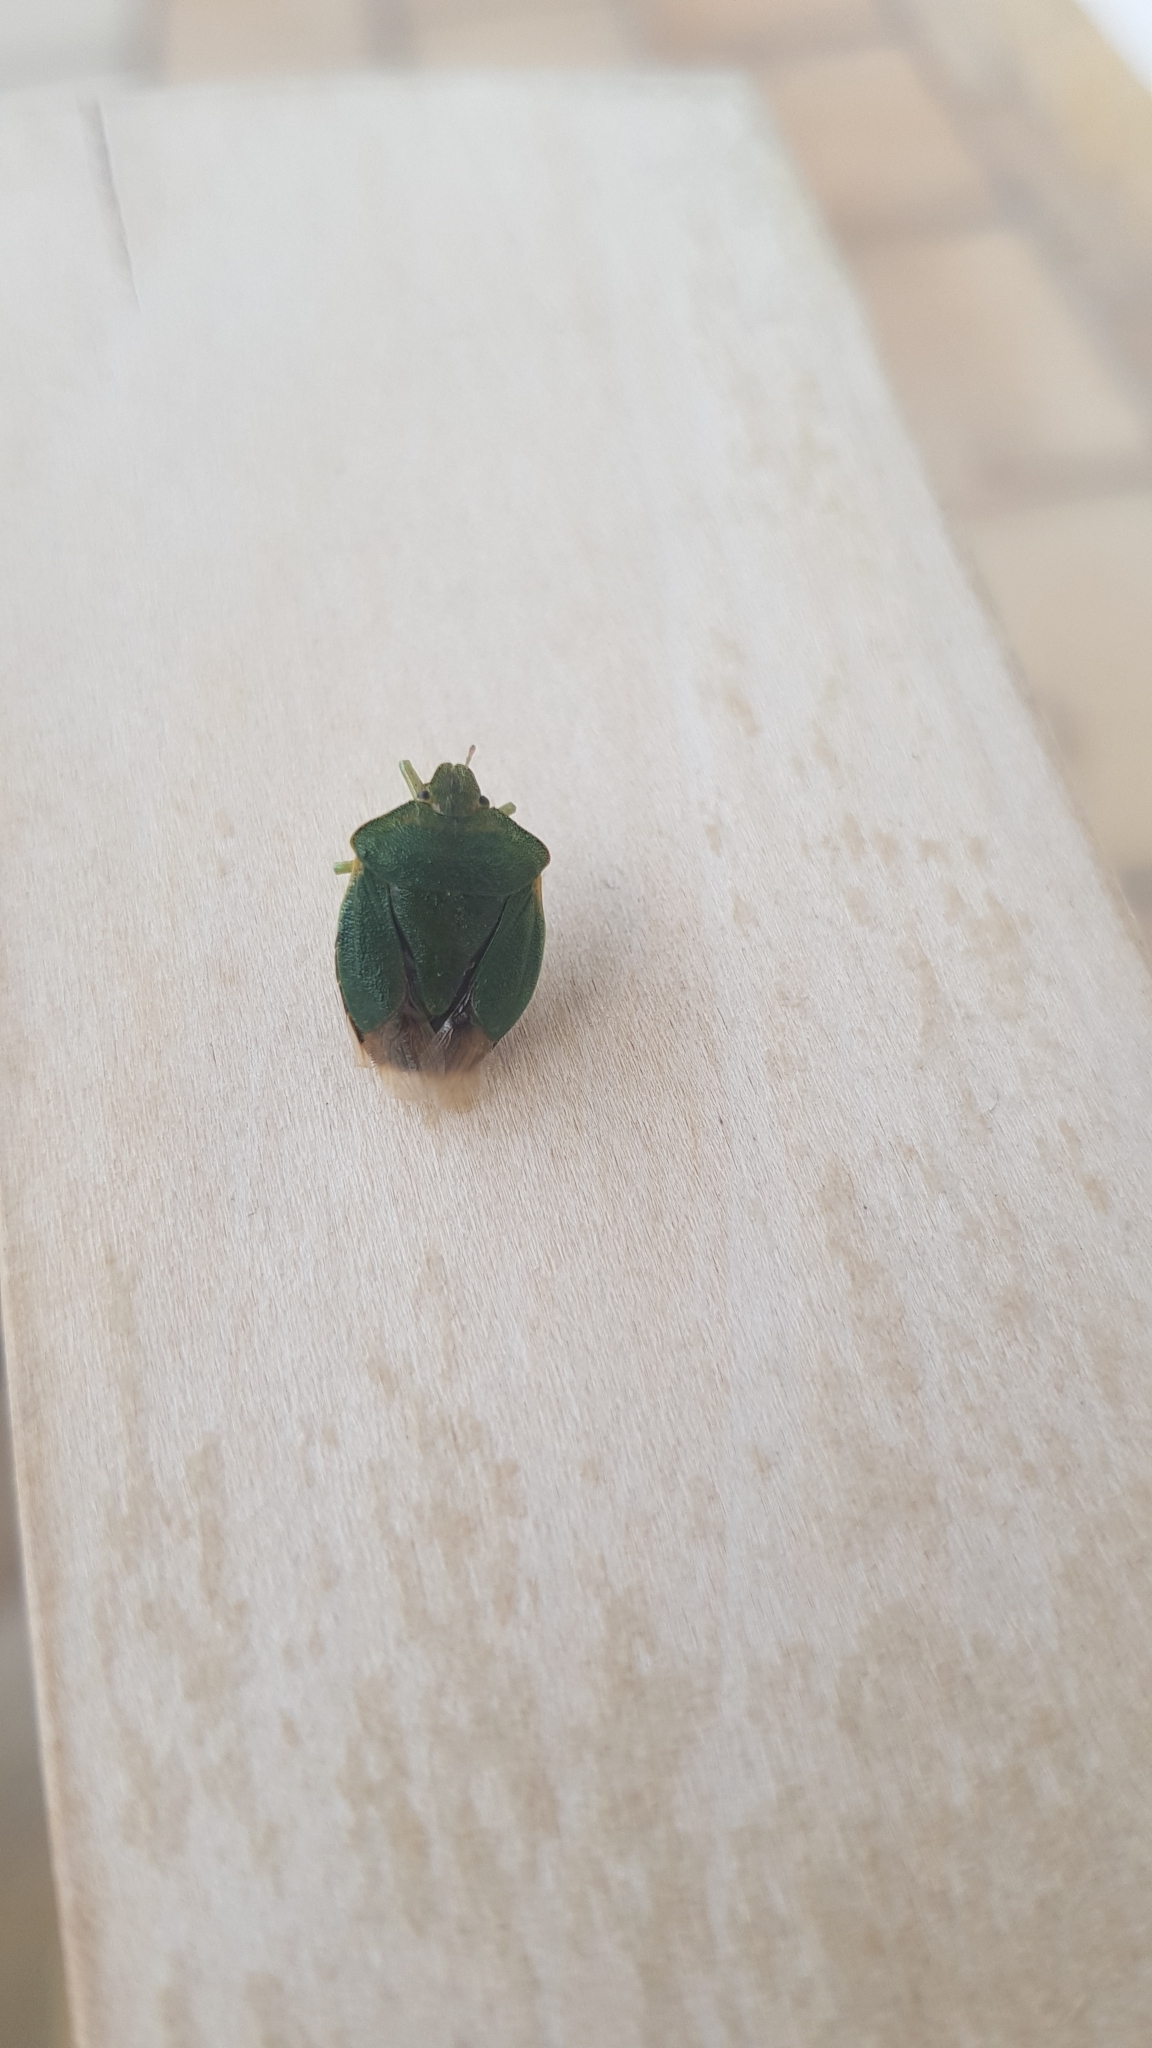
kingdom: Animalia
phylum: Arthropoda
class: Insecta
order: Hemiptera
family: Pentatomidae
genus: Palomena
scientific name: Palomena prasina
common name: Green shieldbug
